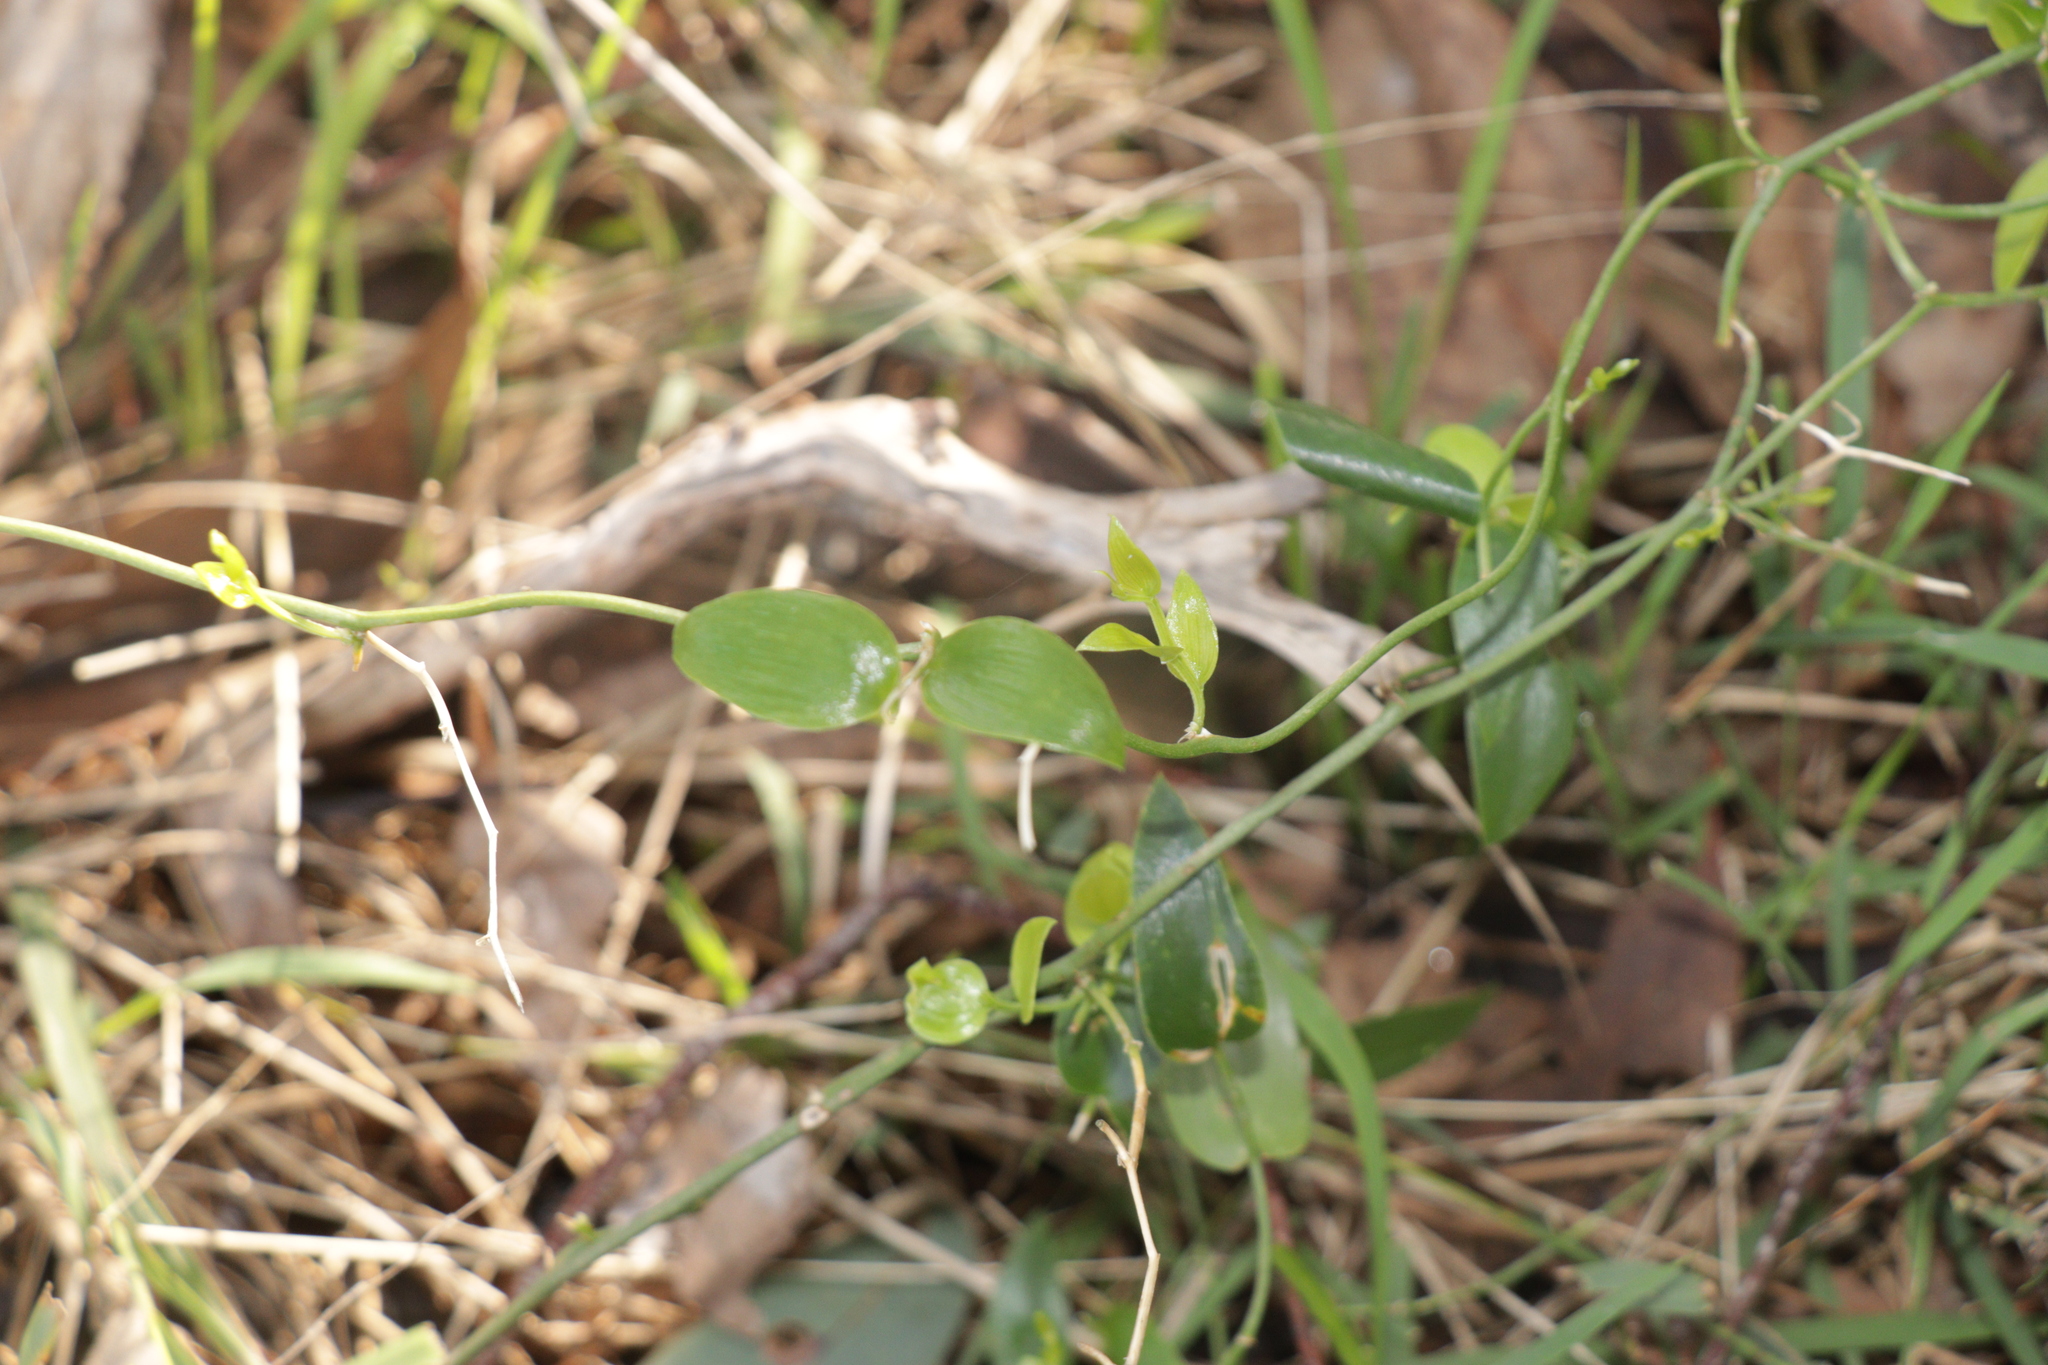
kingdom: Plantae
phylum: Tracheophyta
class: Liliopsida
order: Asparagales
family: Asparagaceae
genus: Asparagus
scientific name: Asparagus asparagoides
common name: African asparagus fern
